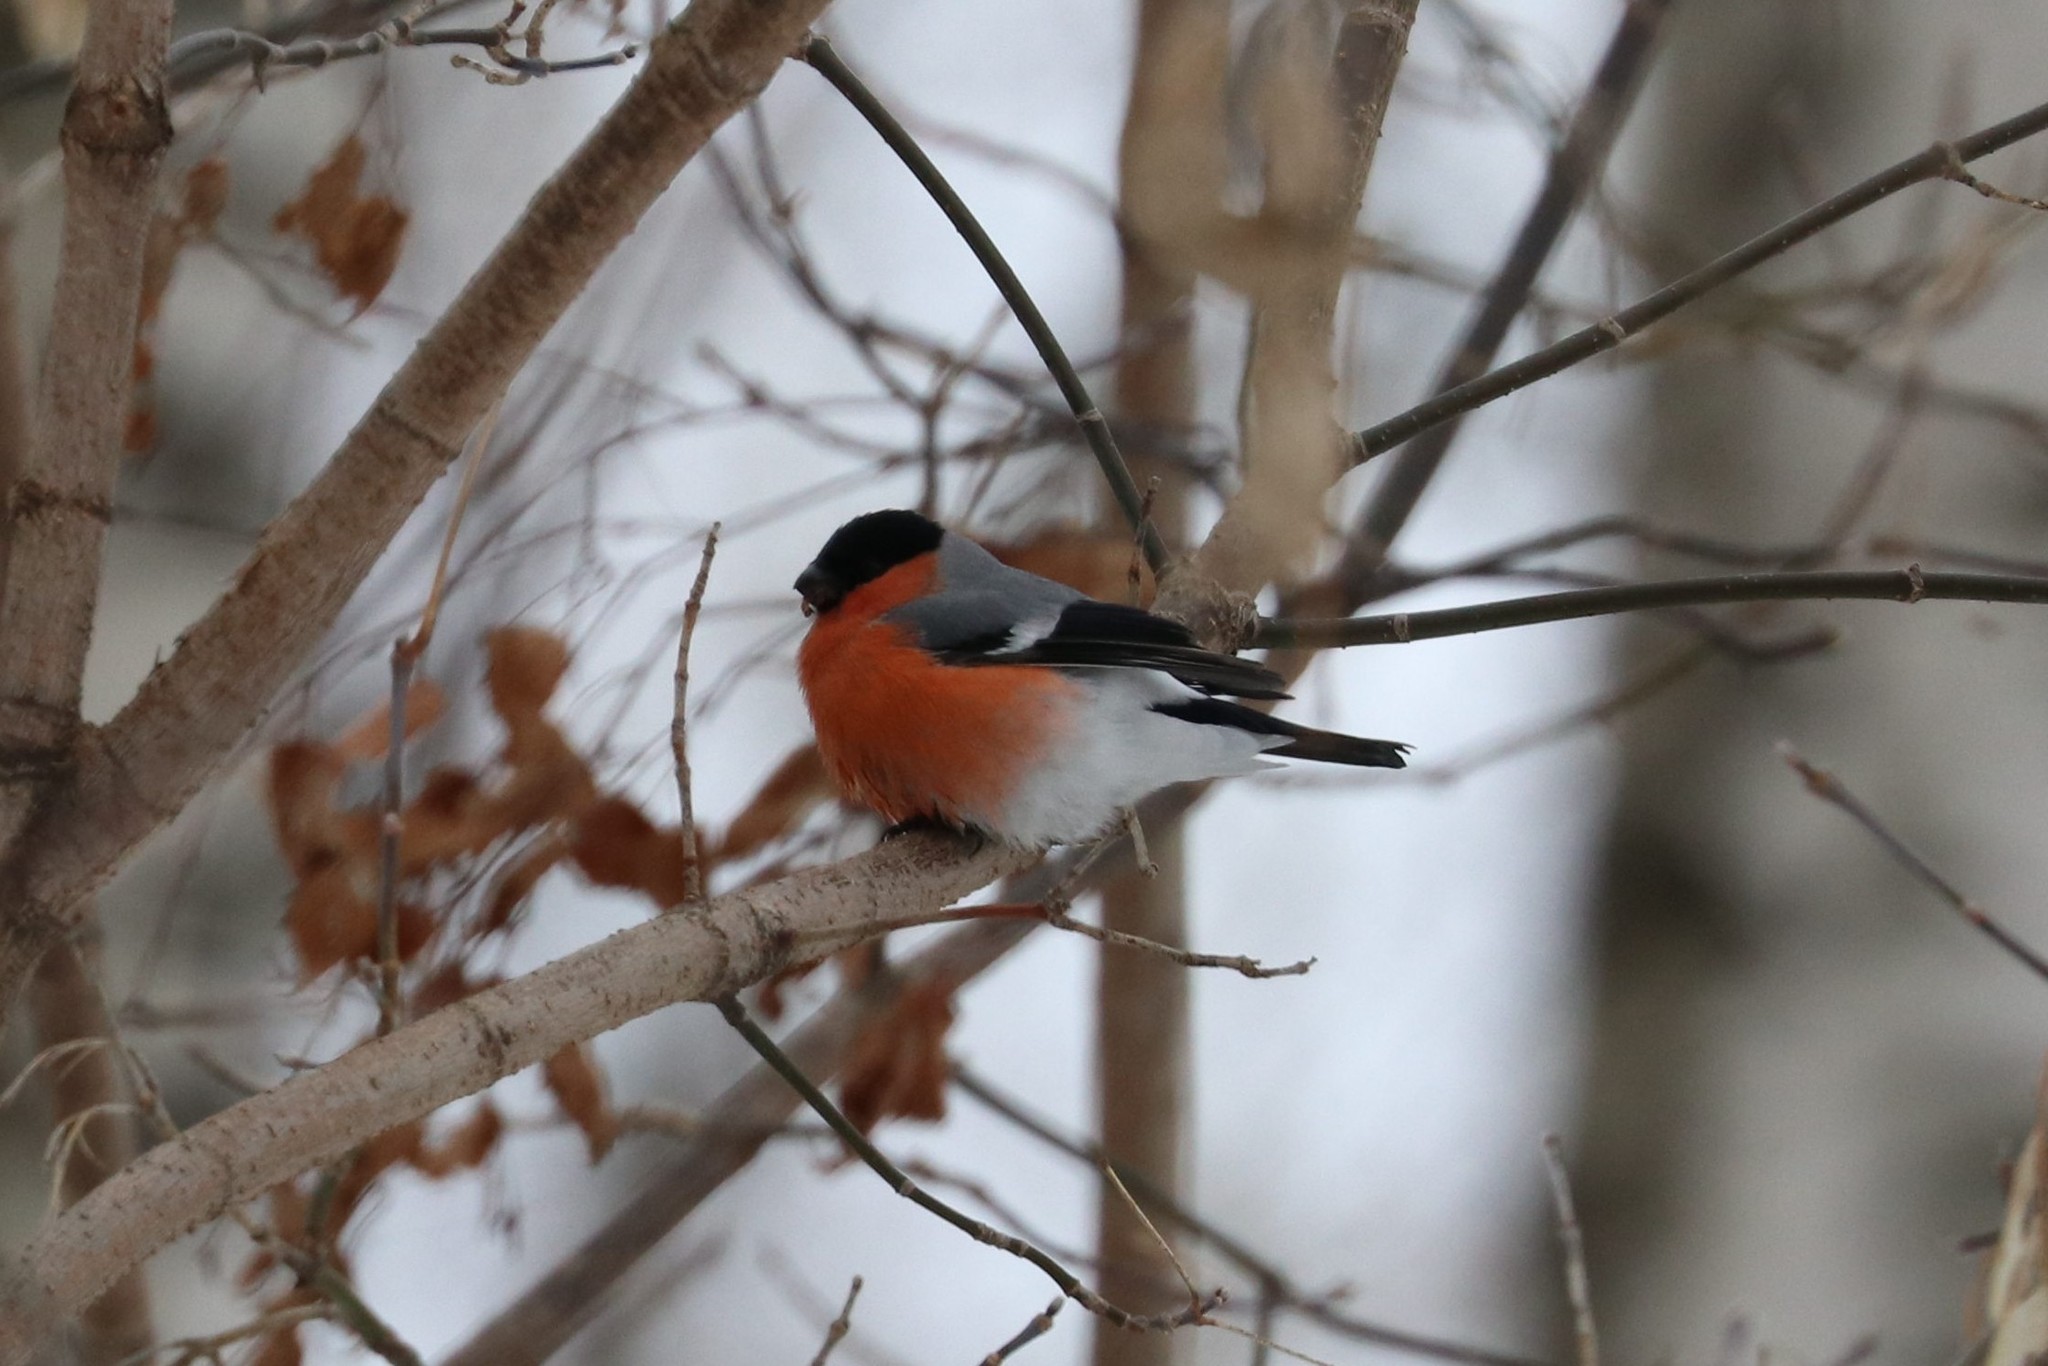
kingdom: Animalia
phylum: Chordata
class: Aves
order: Passeriformes
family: Fringillidae
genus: Pyrrhula
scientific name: Pyrrhula pyrrhula
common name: Eurasian bullfinch
